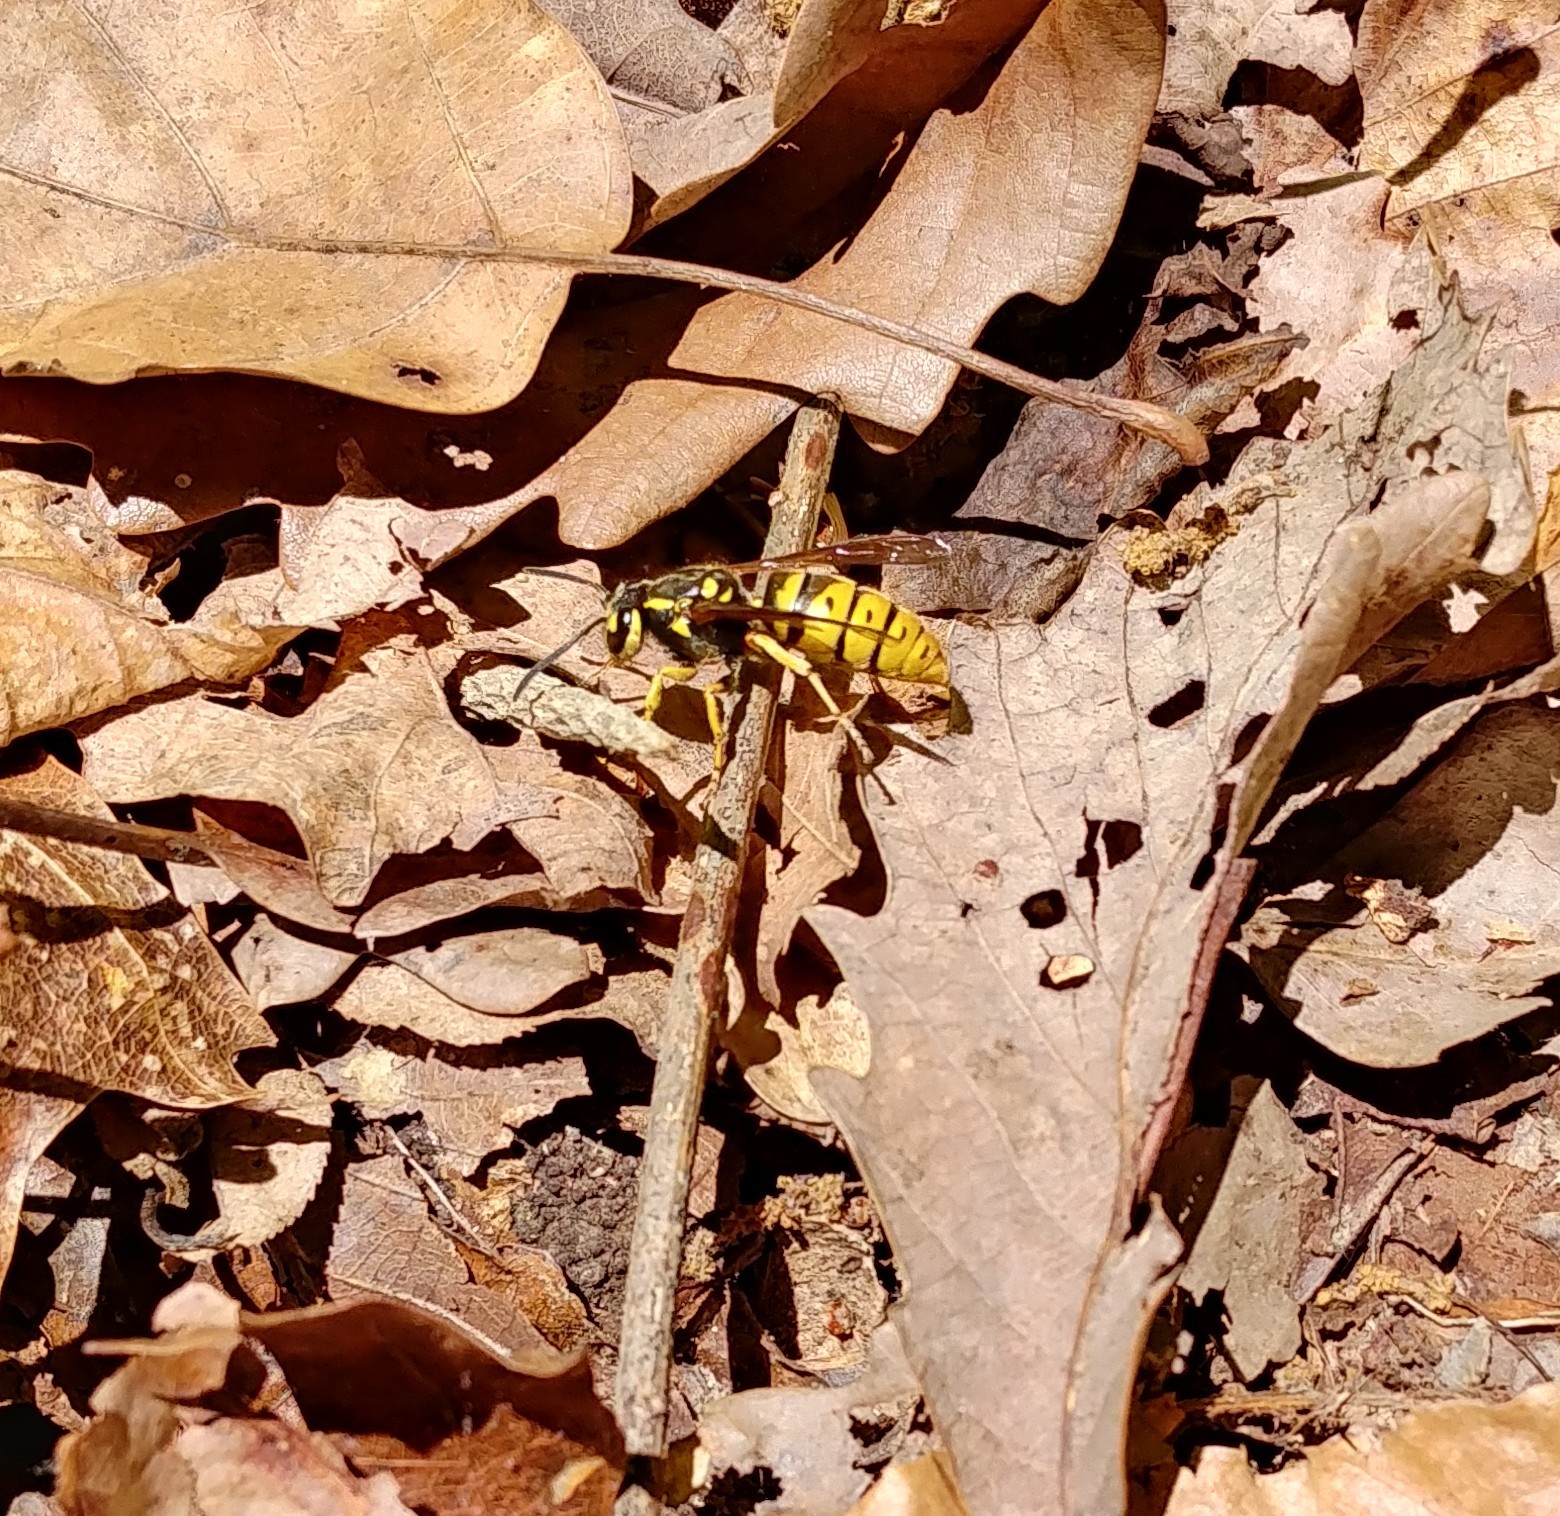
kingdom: Animalia
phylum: Arthropoda
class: Insecta
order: Hymenoptera
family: Vespidae
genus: Vespula
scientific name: Vespula flavopilosa
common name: Downy yellowjacket
